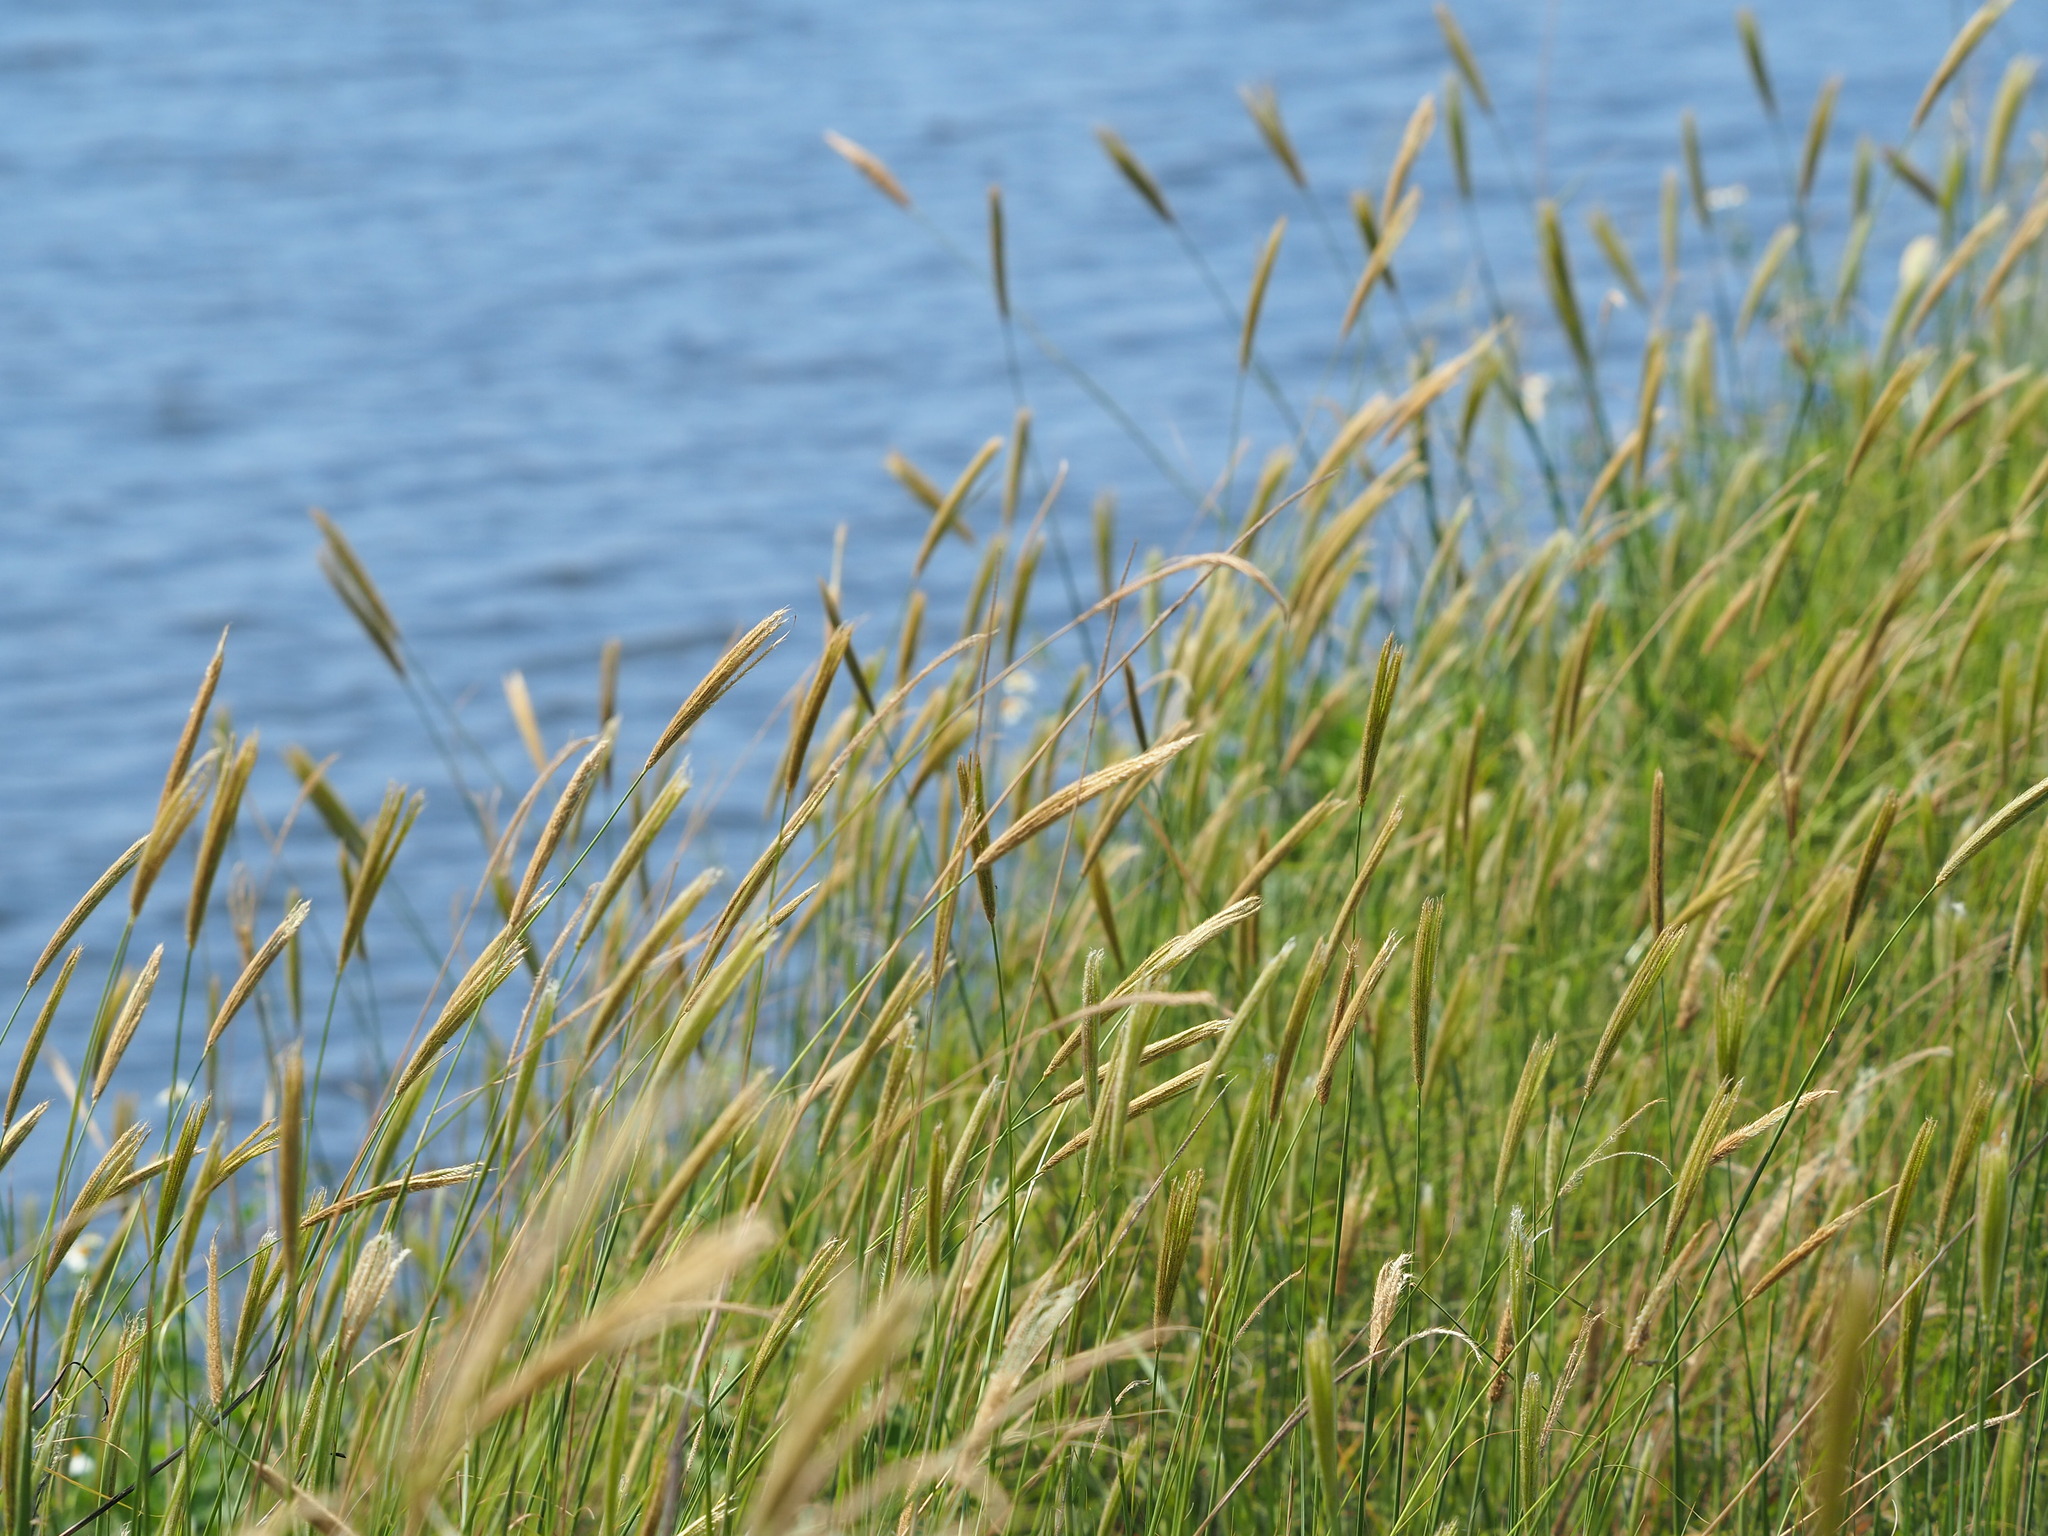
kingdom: Plantae
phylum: Tracheophyta
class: Liliopsida
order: Poales
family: Poaceae
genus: Chloris
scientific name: Chloris formosana
